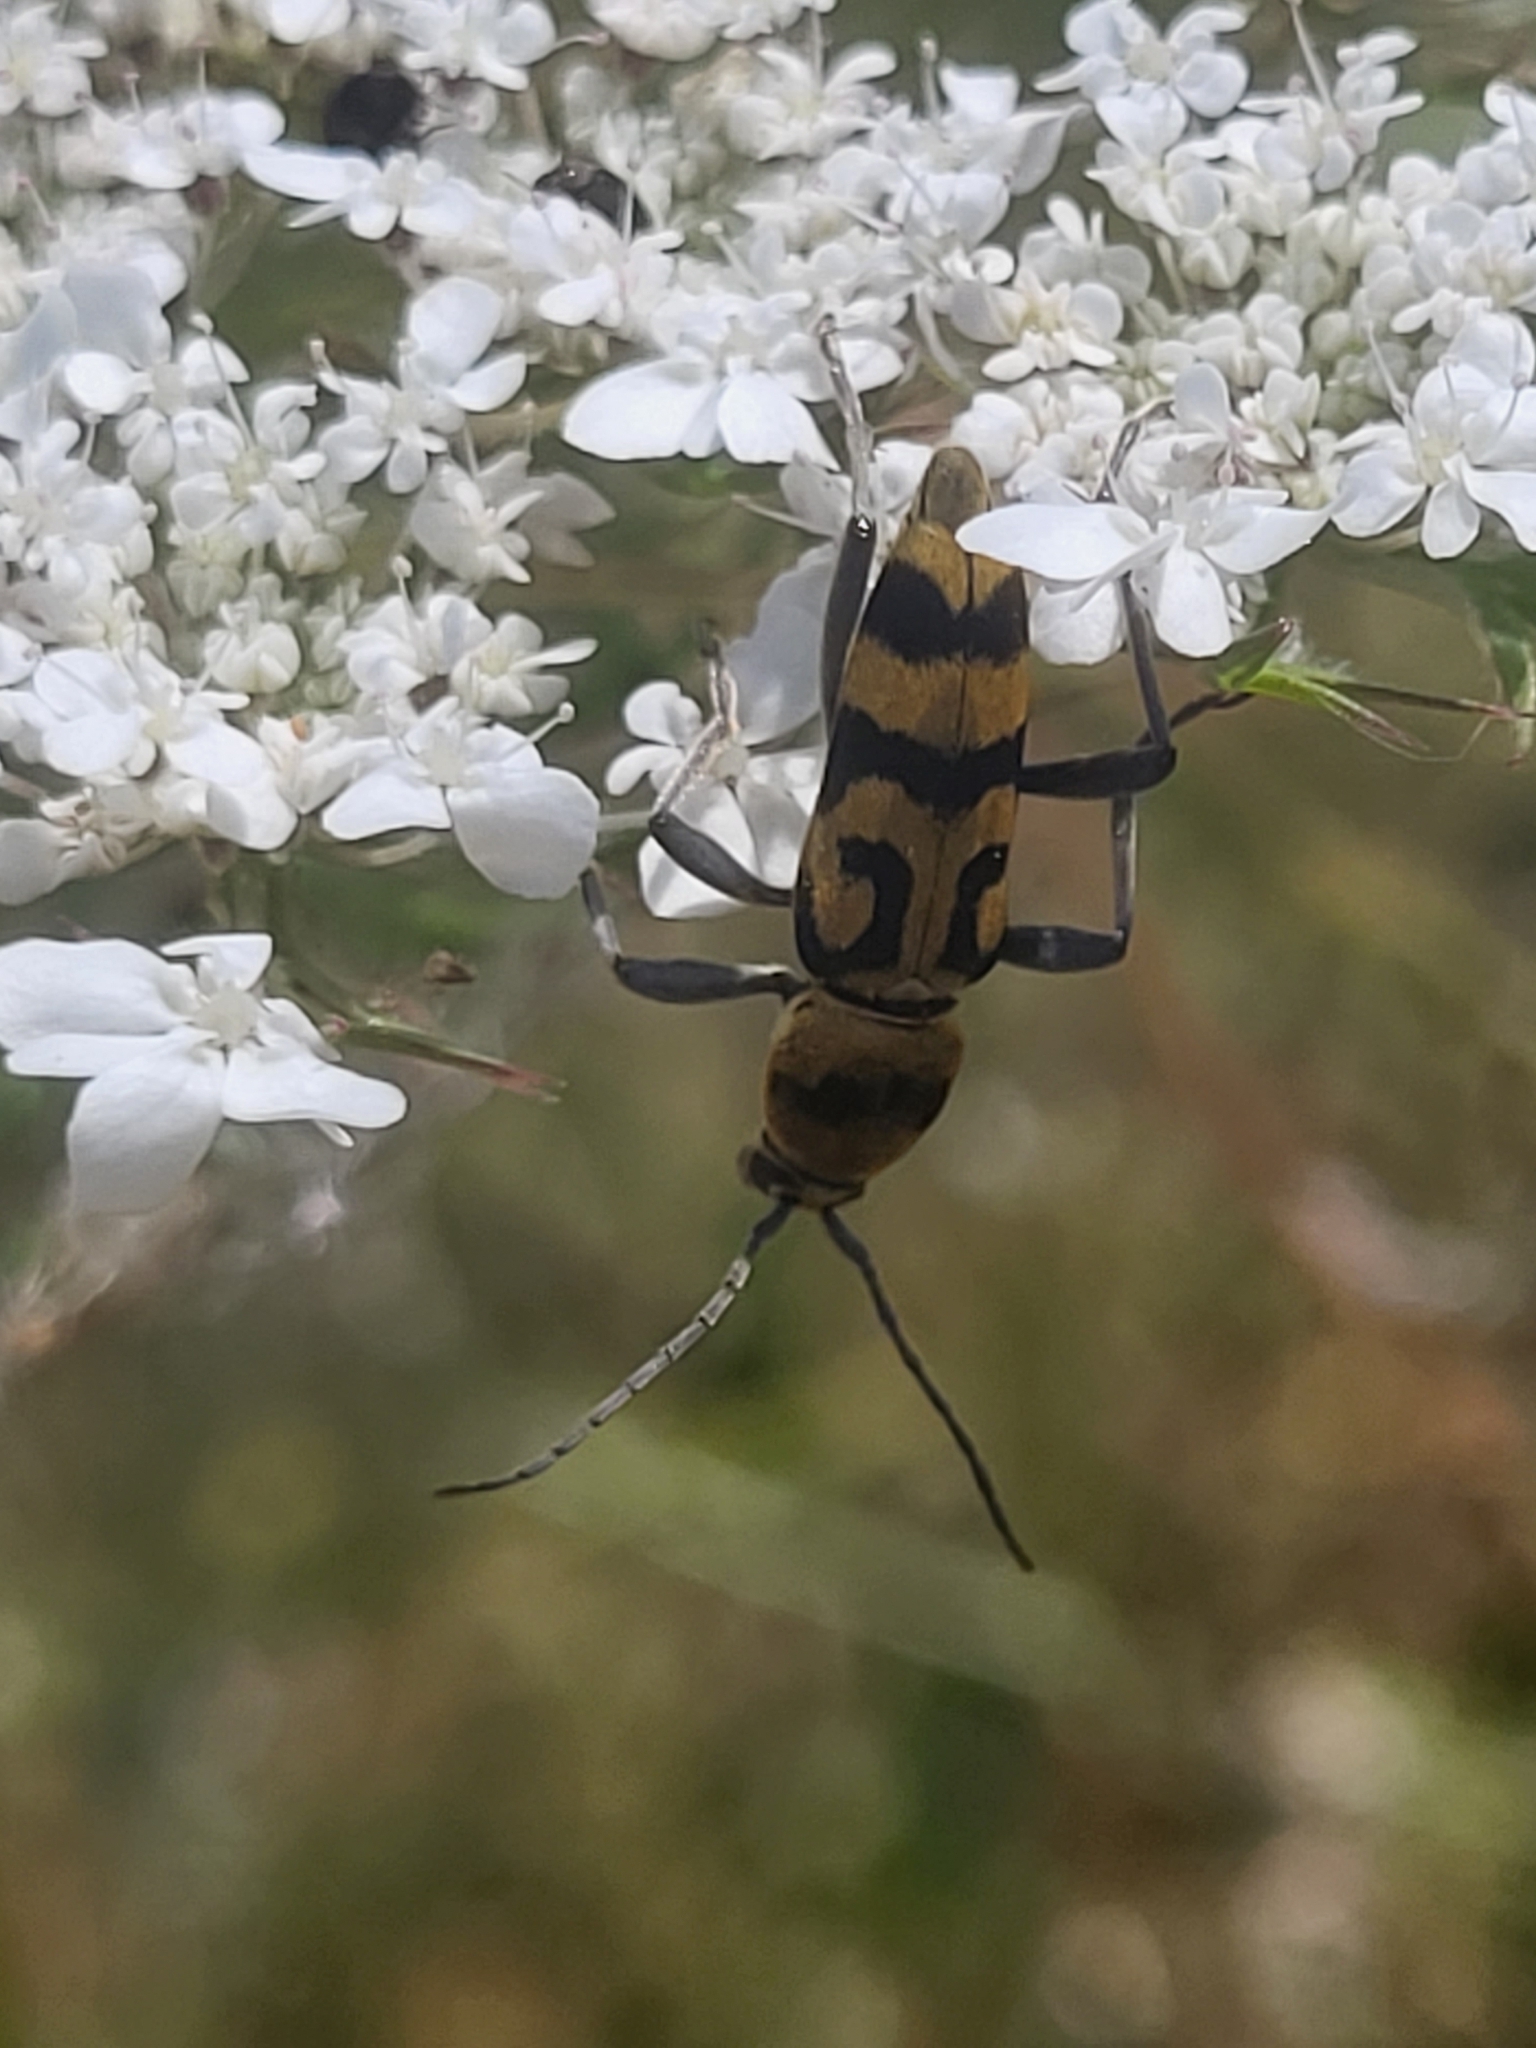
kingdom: Animalia
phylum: Arthropoda
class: Insecta
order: Coleoptera
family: Cerambycidae
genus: Chlorophorus
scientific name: Chlorophorus varius
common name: Grape wood borer
